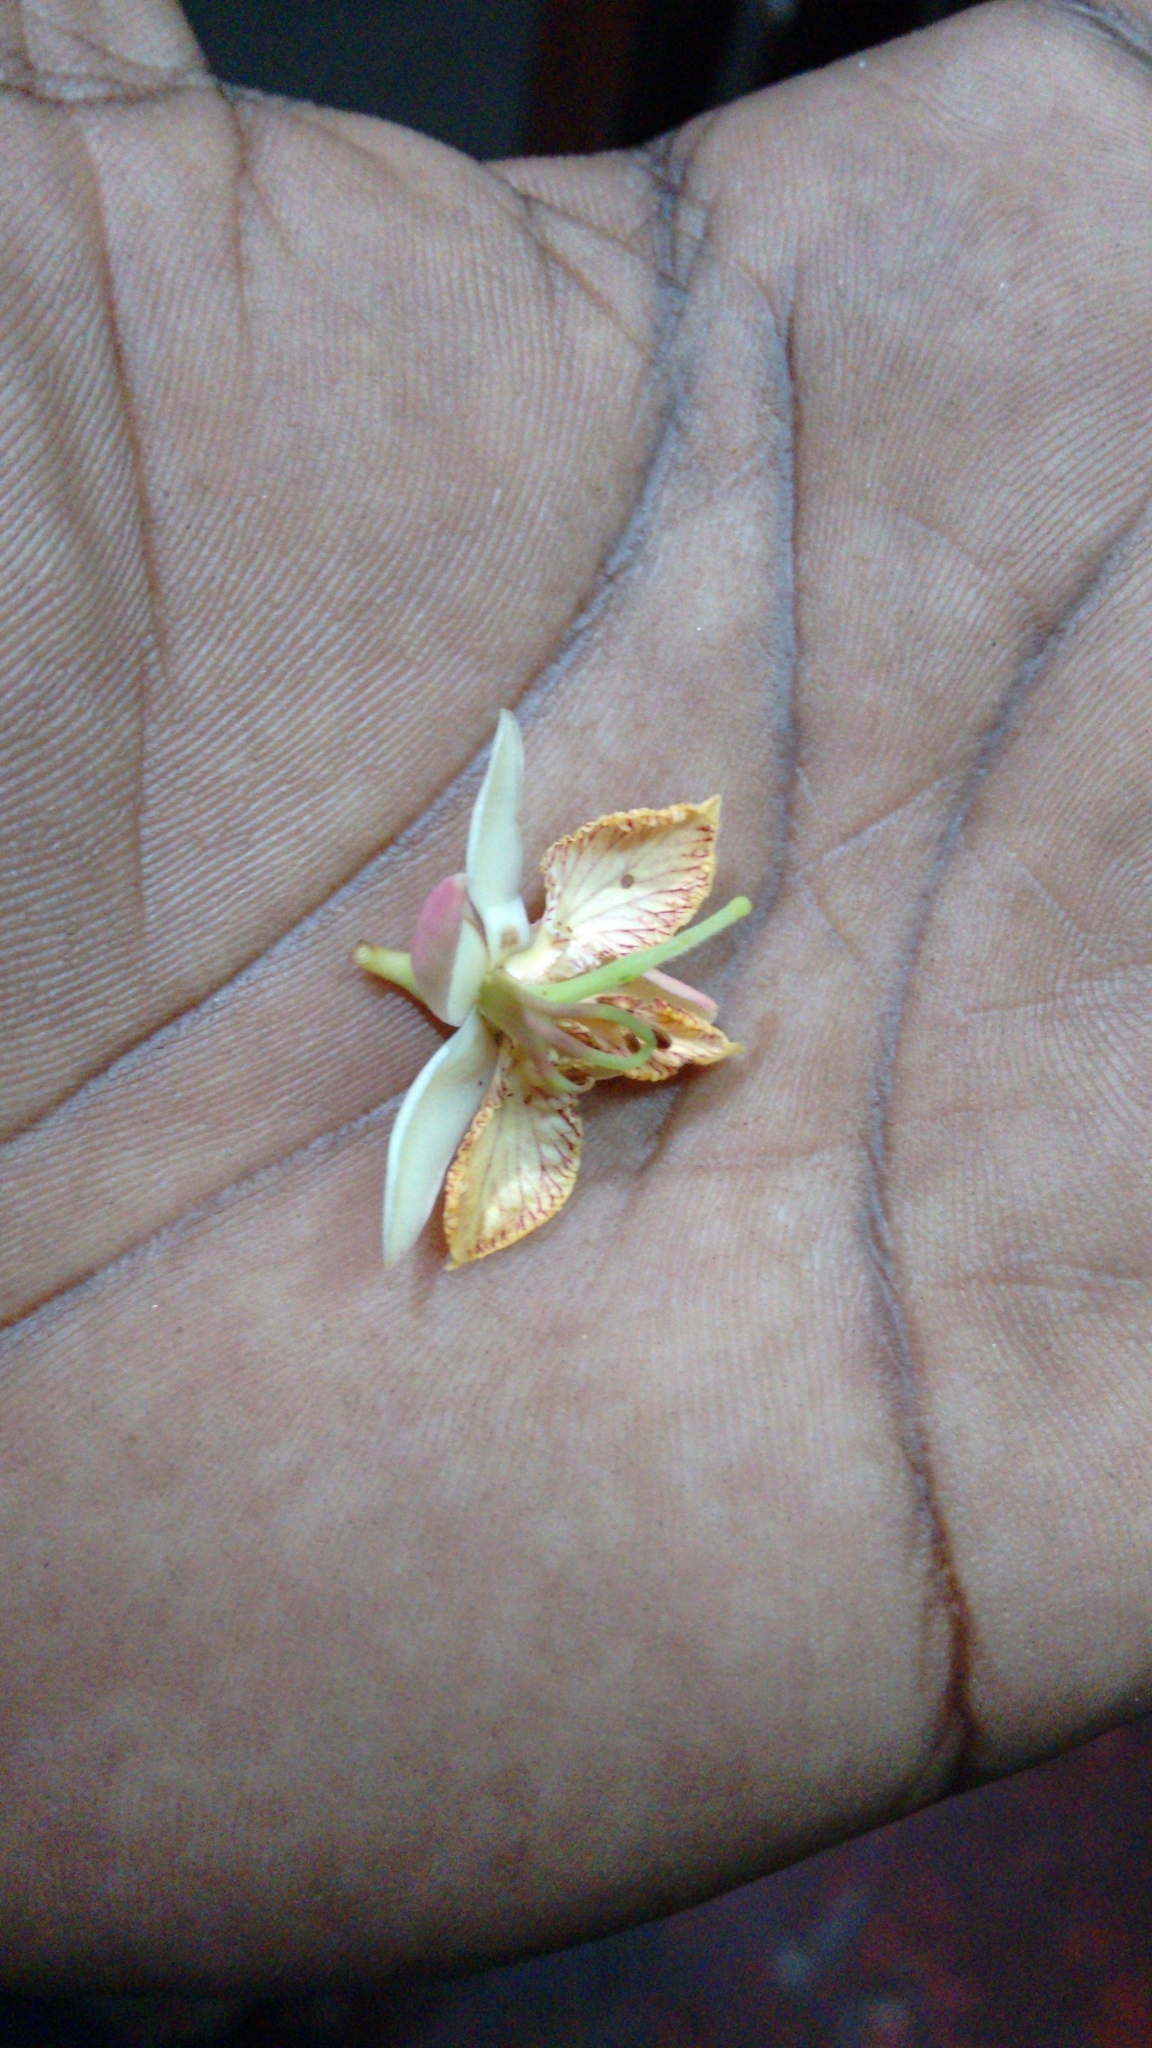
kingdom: Plantae
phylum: Tracheophyta
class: Magnoliopsida
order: Fabales
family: Fabaceae
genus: Tamarindus
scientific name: Tamarindus indica
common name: Tamarind
